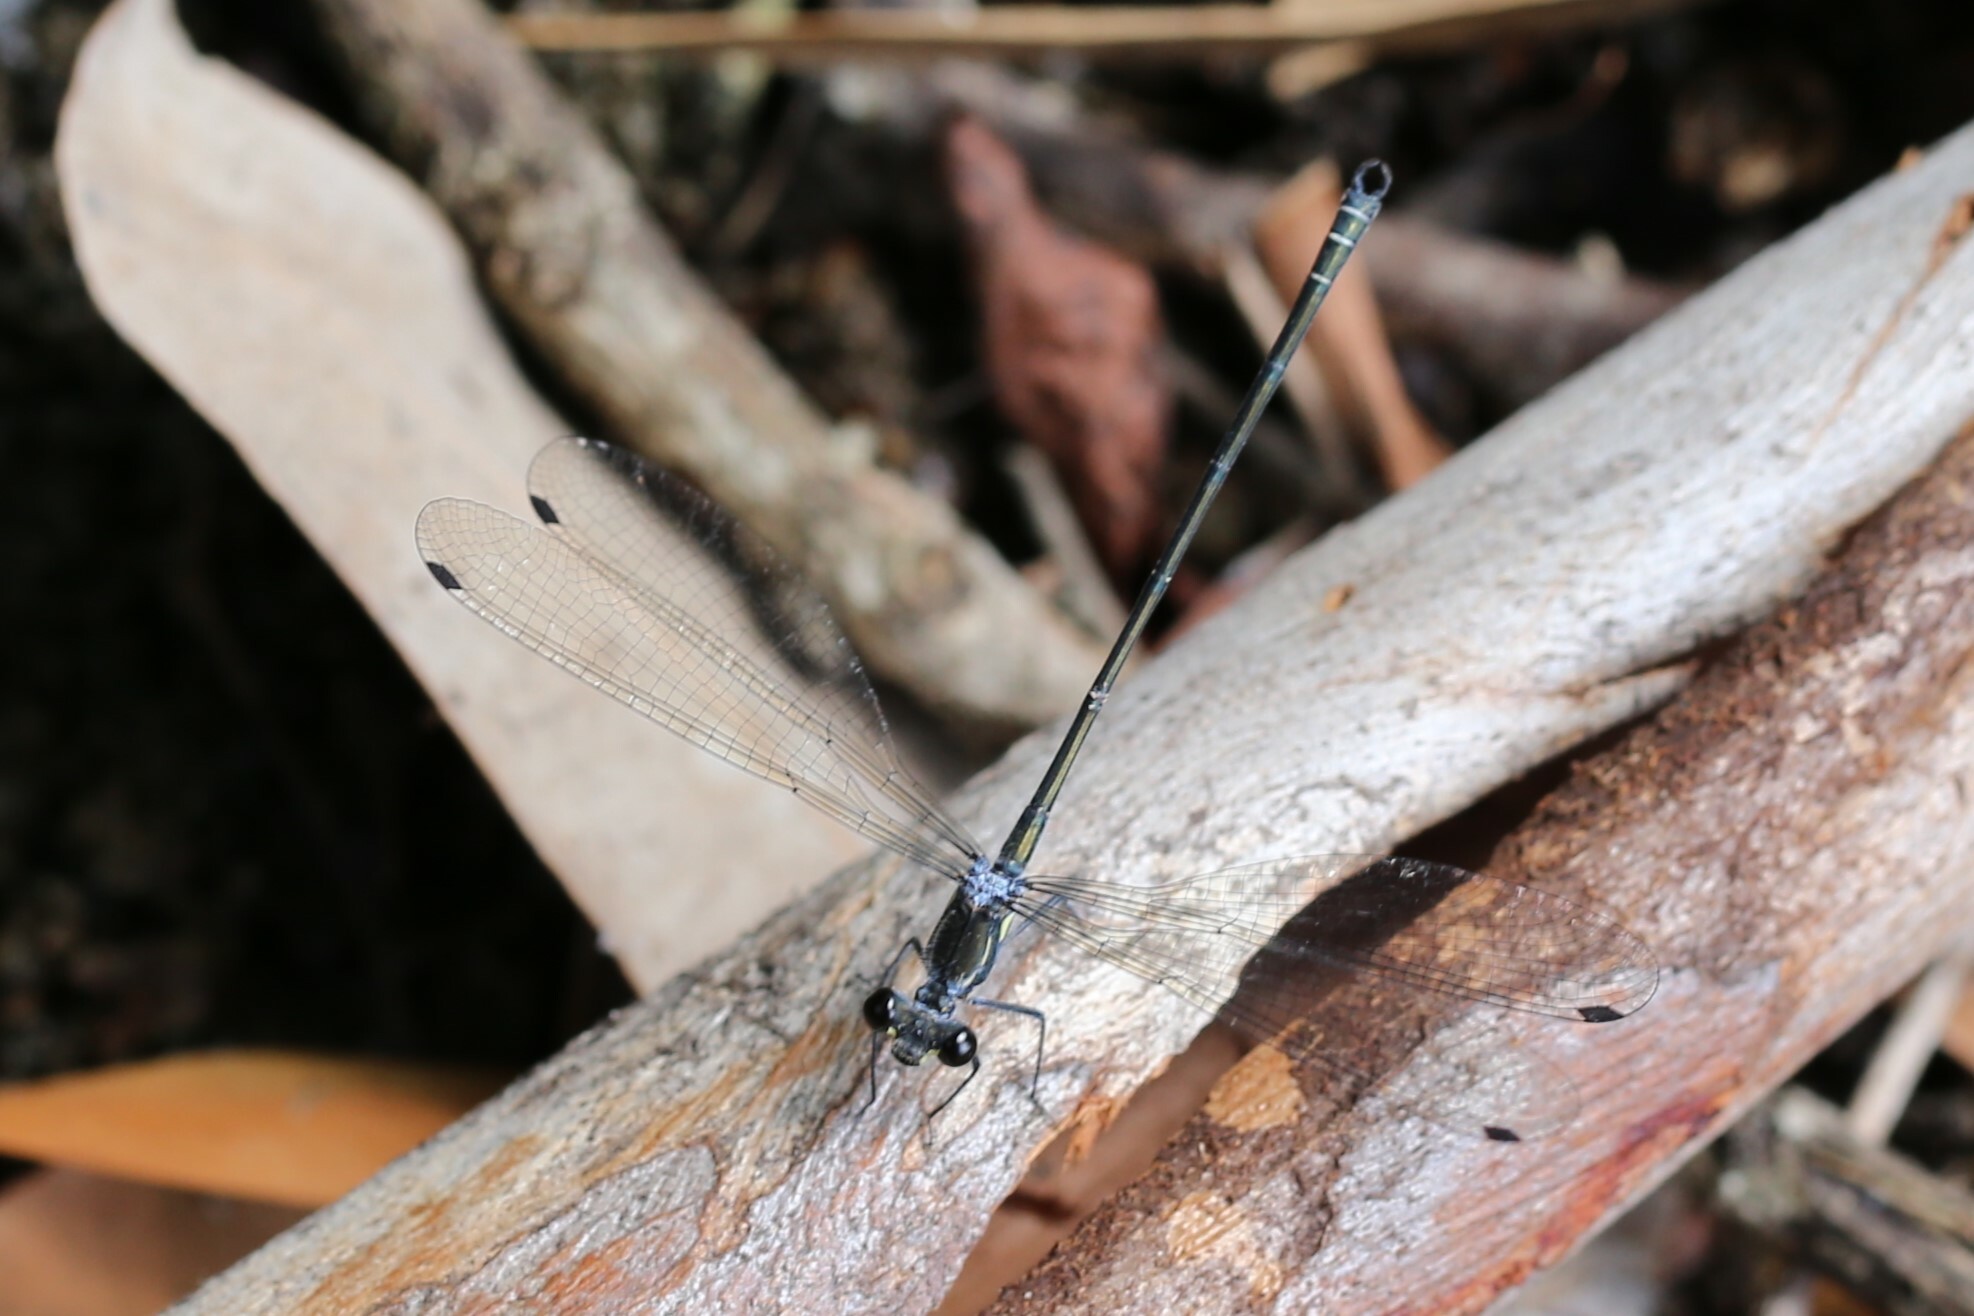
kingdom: Animalia
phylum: Arthropoda
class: Insecta
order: Odonata
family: Argiolestidae
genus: Austroargiolestes
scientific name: Austroargiolestes icteromelas
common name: Common flatwing
